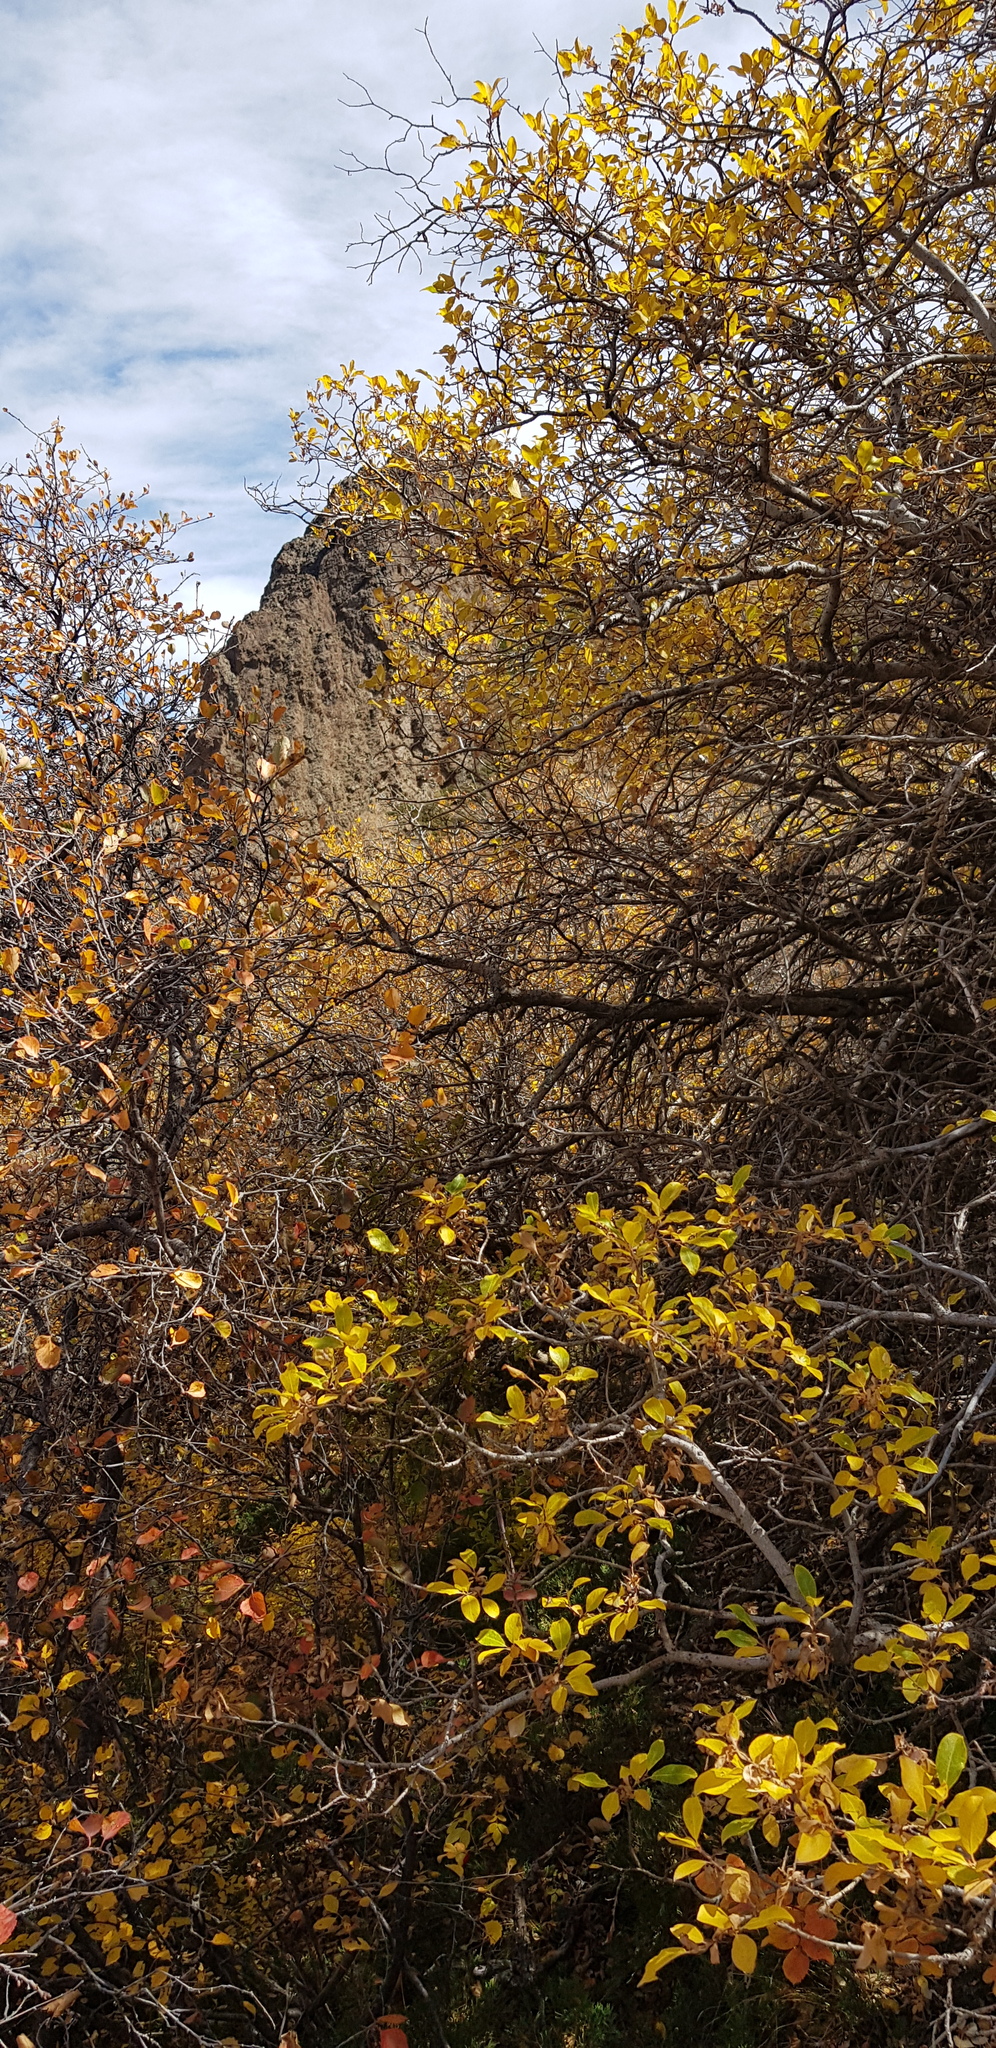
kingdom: Plantae
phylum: Tracheophyta
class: Magnoliopsida
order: Dipsacales
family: Caprifoliaceae
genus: Lonicera
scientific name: Lonicera hispida
